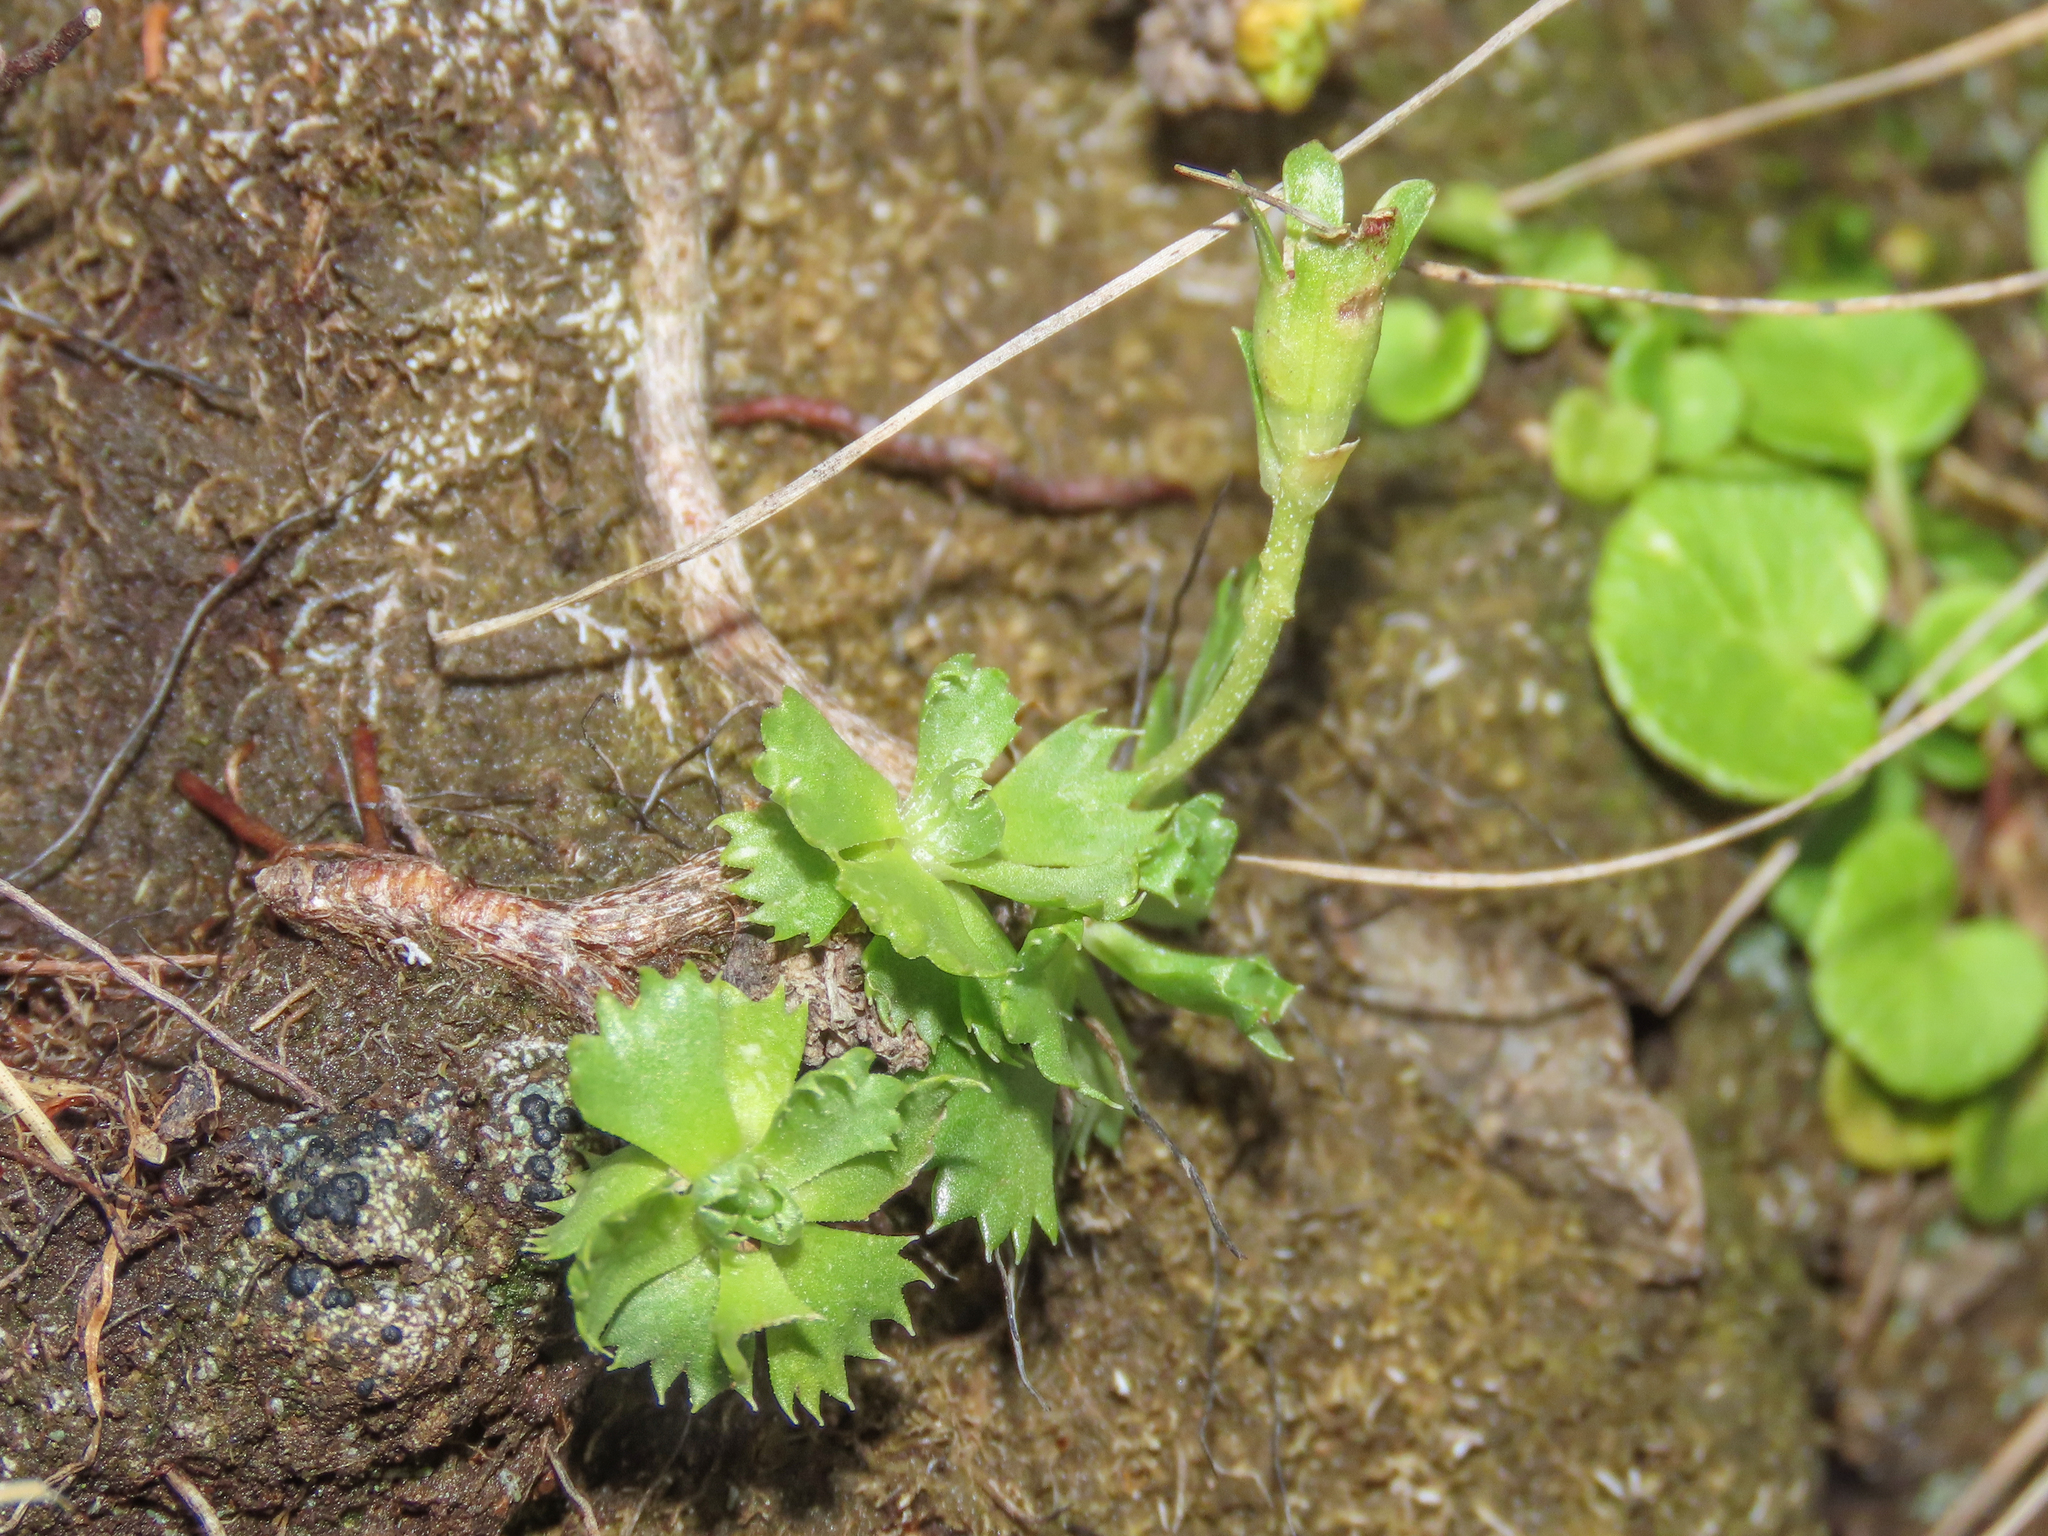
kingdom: Plantae
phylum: Tracheophyta
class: Magnoliopsida
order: Ericales
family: Primulaceae
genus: Primula
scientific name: Primula minima
